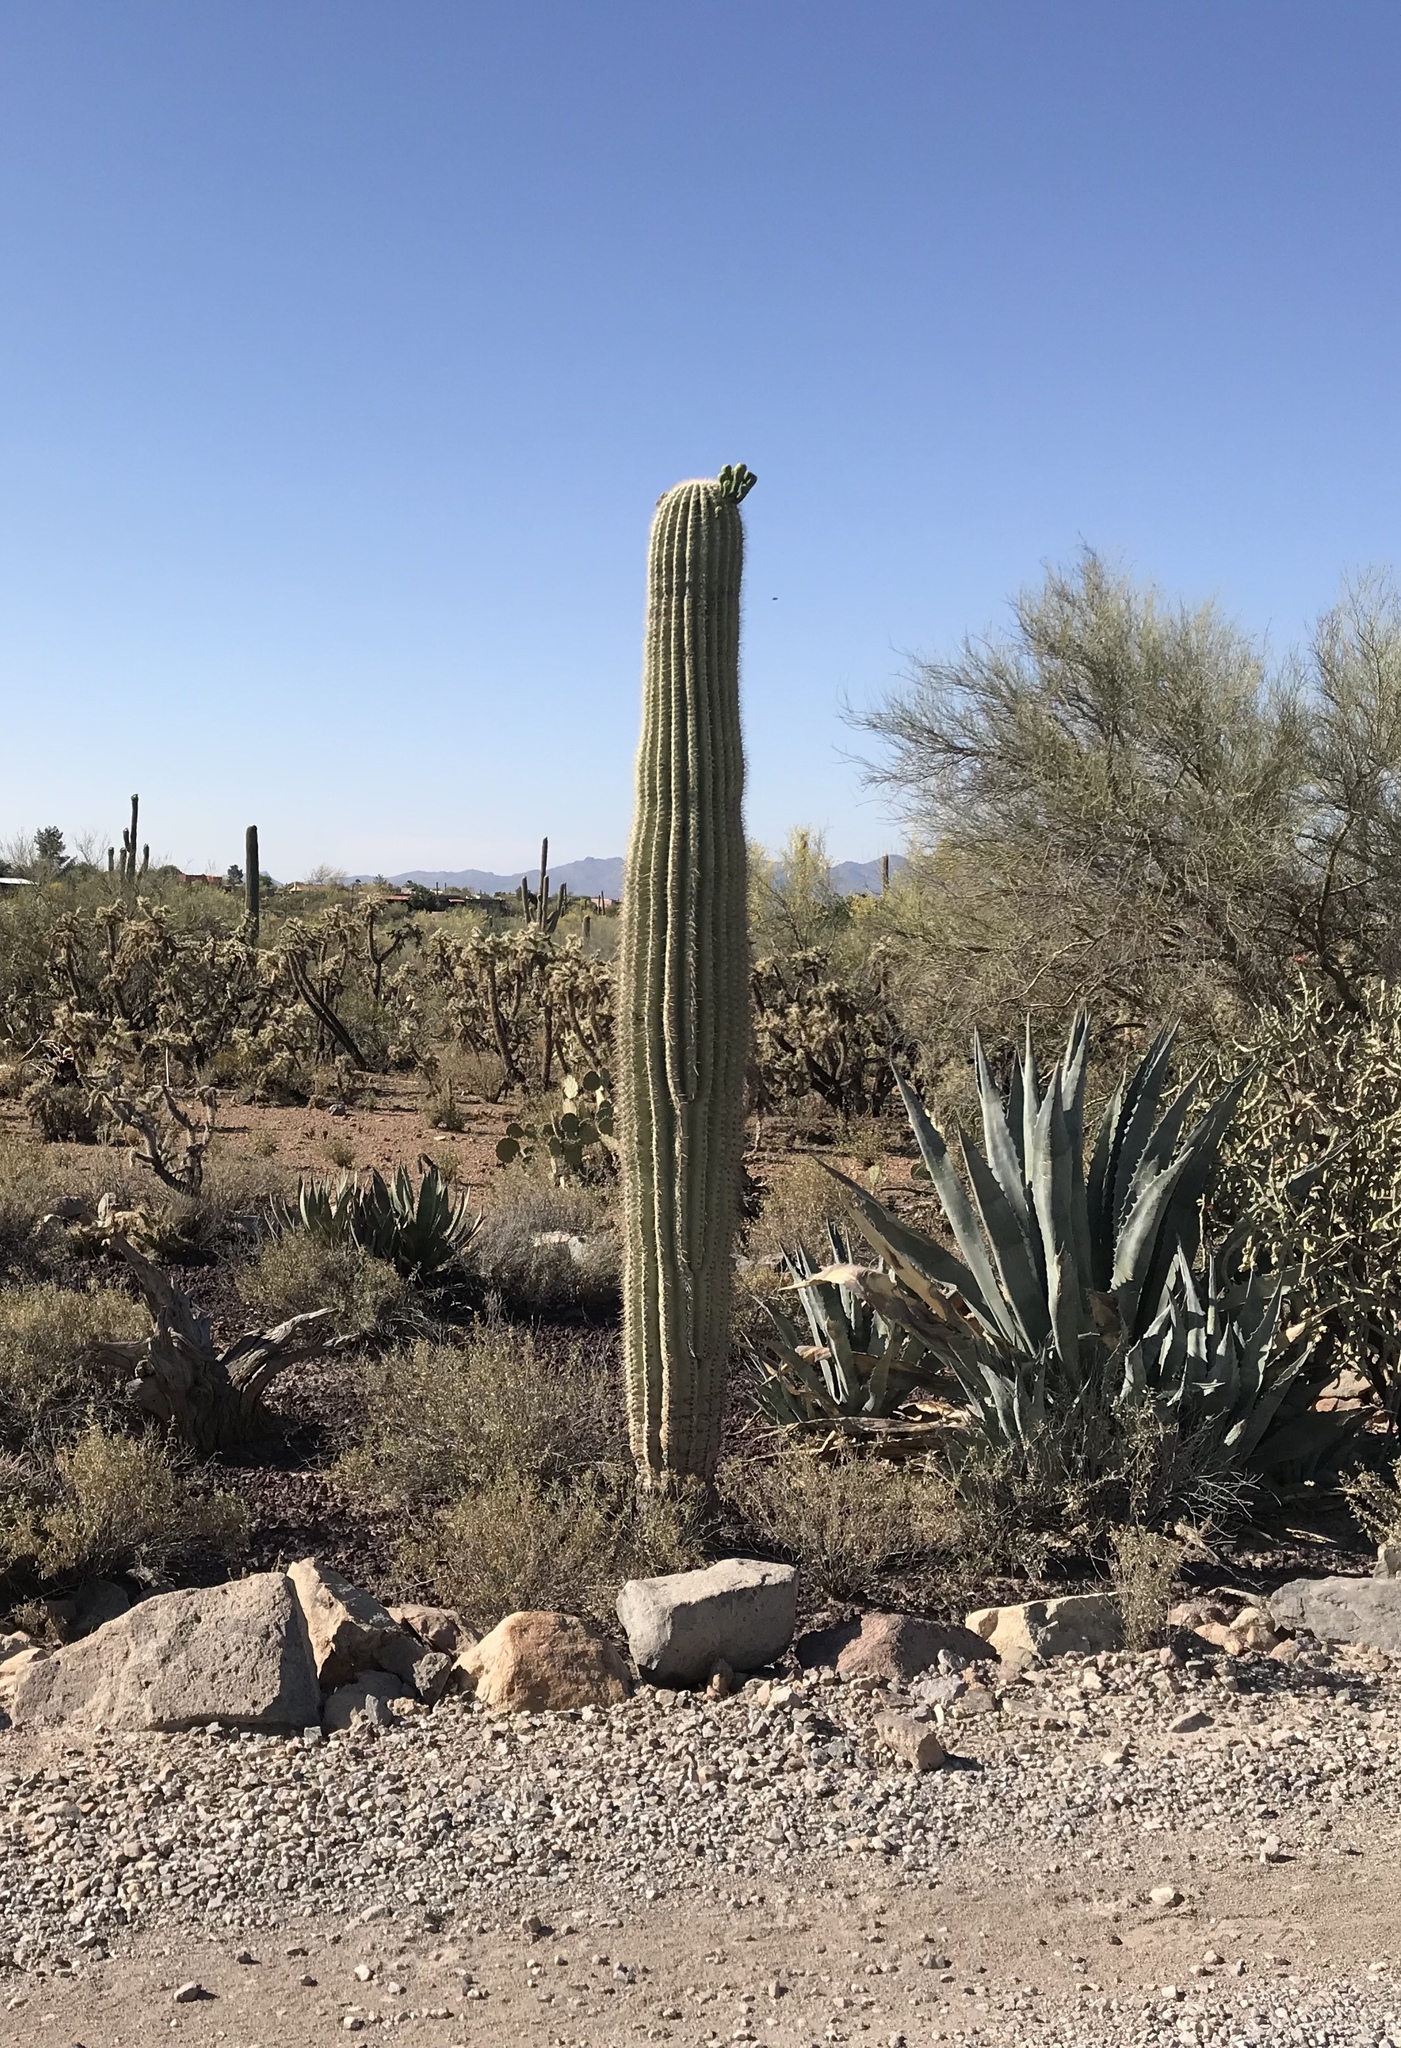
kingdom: Plantae
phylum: Tracheophyta
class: Magnoliopsida
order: Caryophyllales
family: Cactaceae
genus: Carnegiea
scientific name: Carnegiea gigantea
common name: Saguaro
